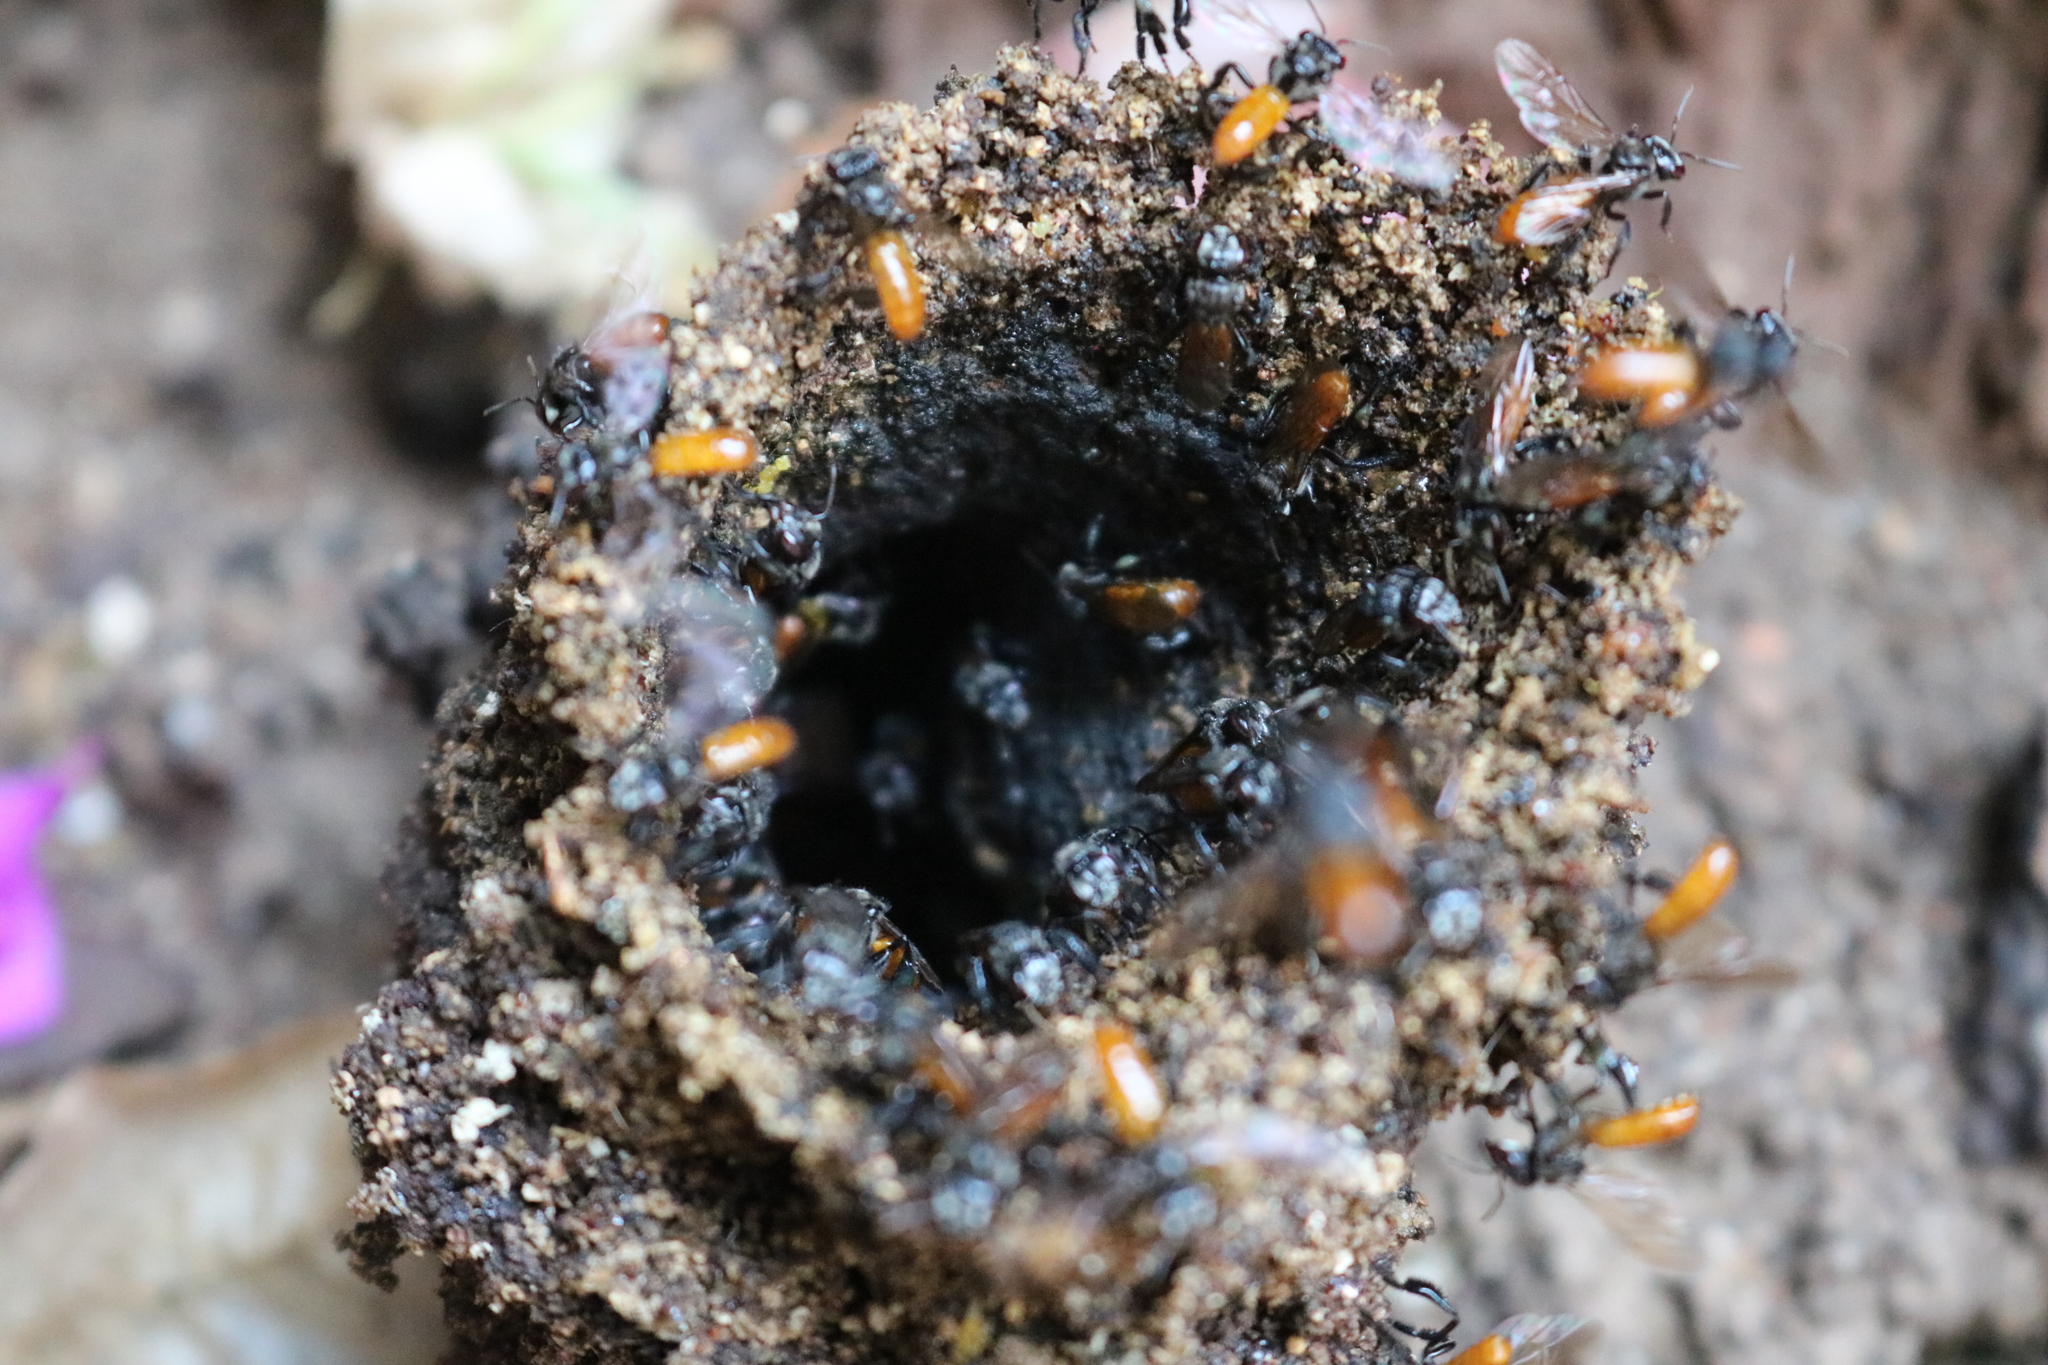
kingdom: Animalia
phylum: Arthropoda
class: Insecta
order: Hymenoptera
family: Apidae
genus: Trigona
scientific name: Trigona fulviventris
